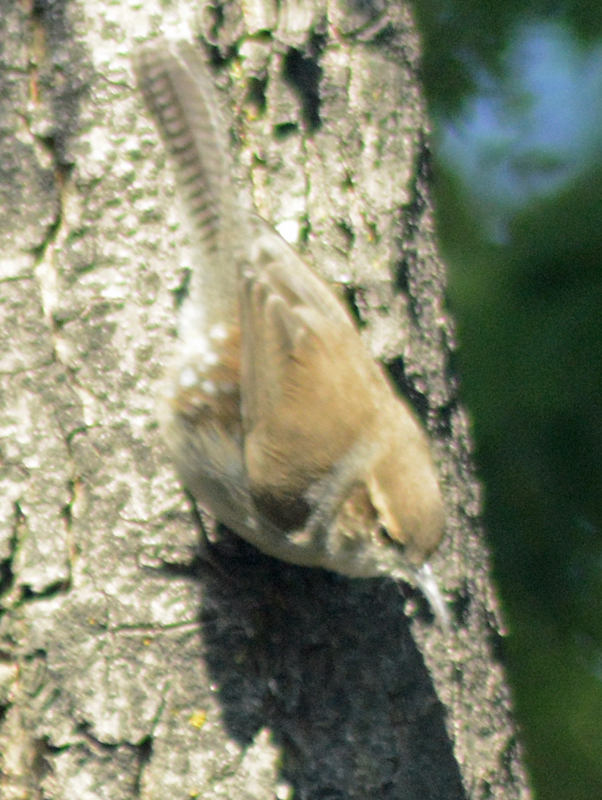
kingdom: Animalia
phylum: Chordata
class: Aves
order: Passeriformes
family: Troglodytidae
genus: Thryomanes
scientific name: Thryomanes bewickii
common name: Bewick's wren
